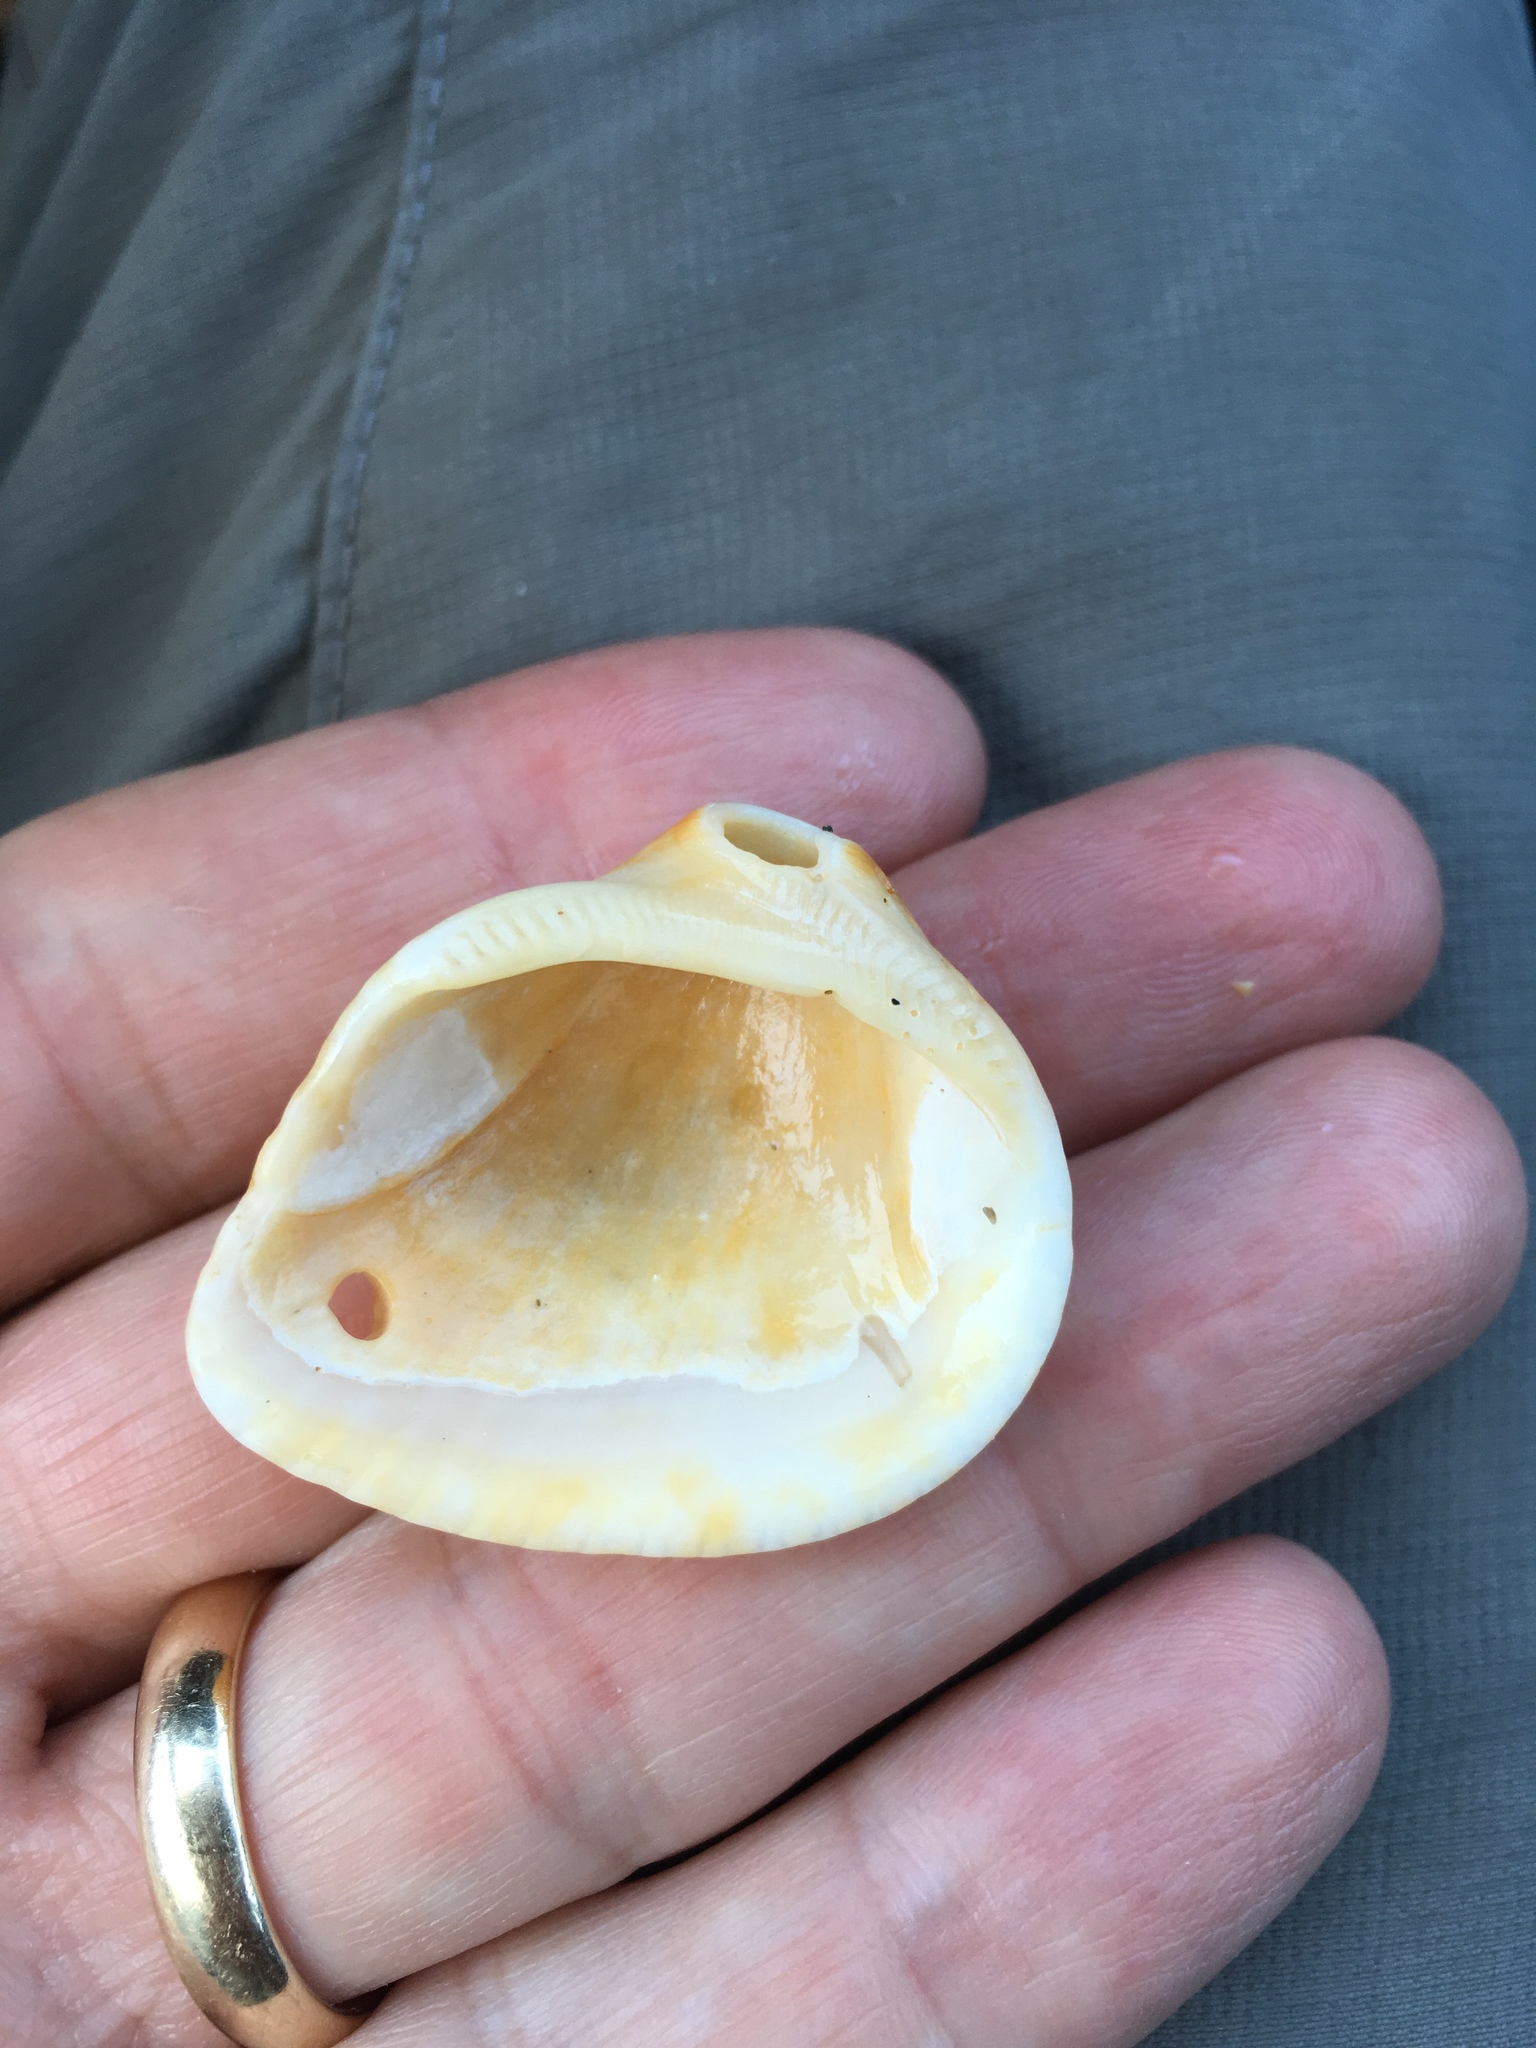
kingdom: Animalia
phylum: Mollusca
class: Bivalvia
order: Arcida
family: Noetiidae
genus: Noetia
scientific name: Noetia ponderosa
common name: Ponderous ark
